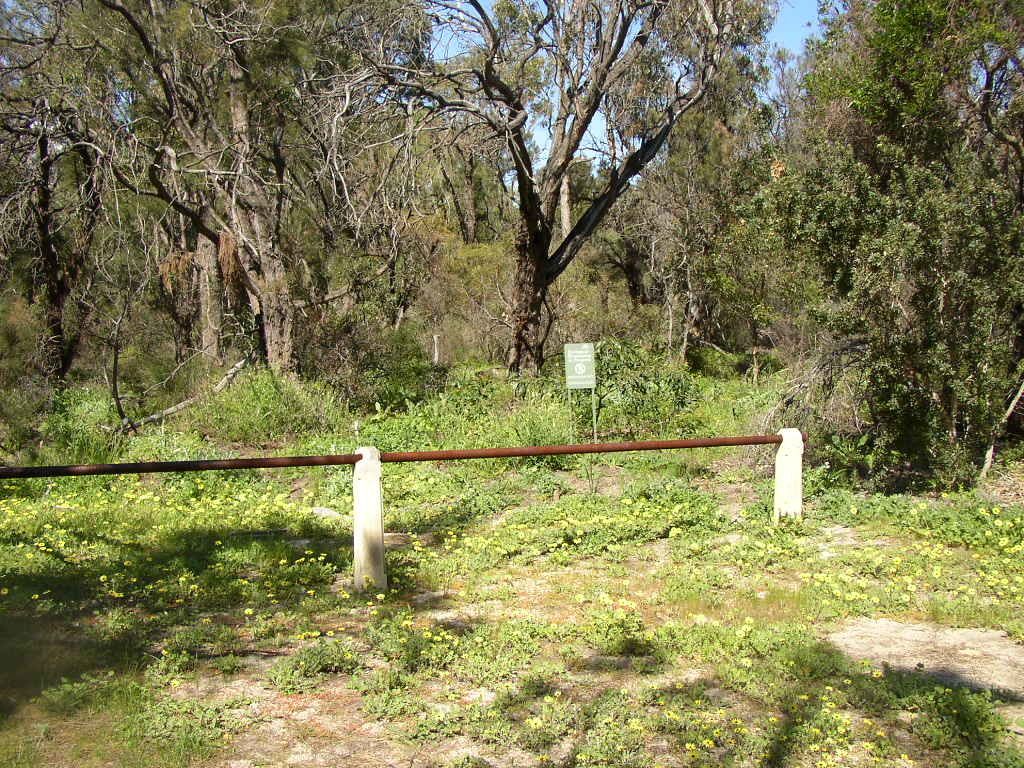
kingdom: Plantae
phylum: Tracheophyta
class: Magnoliopsida
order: Caryophyllales
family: Amaranthaceae
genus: Ptilotus
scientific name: Ptilotus polystachyus
